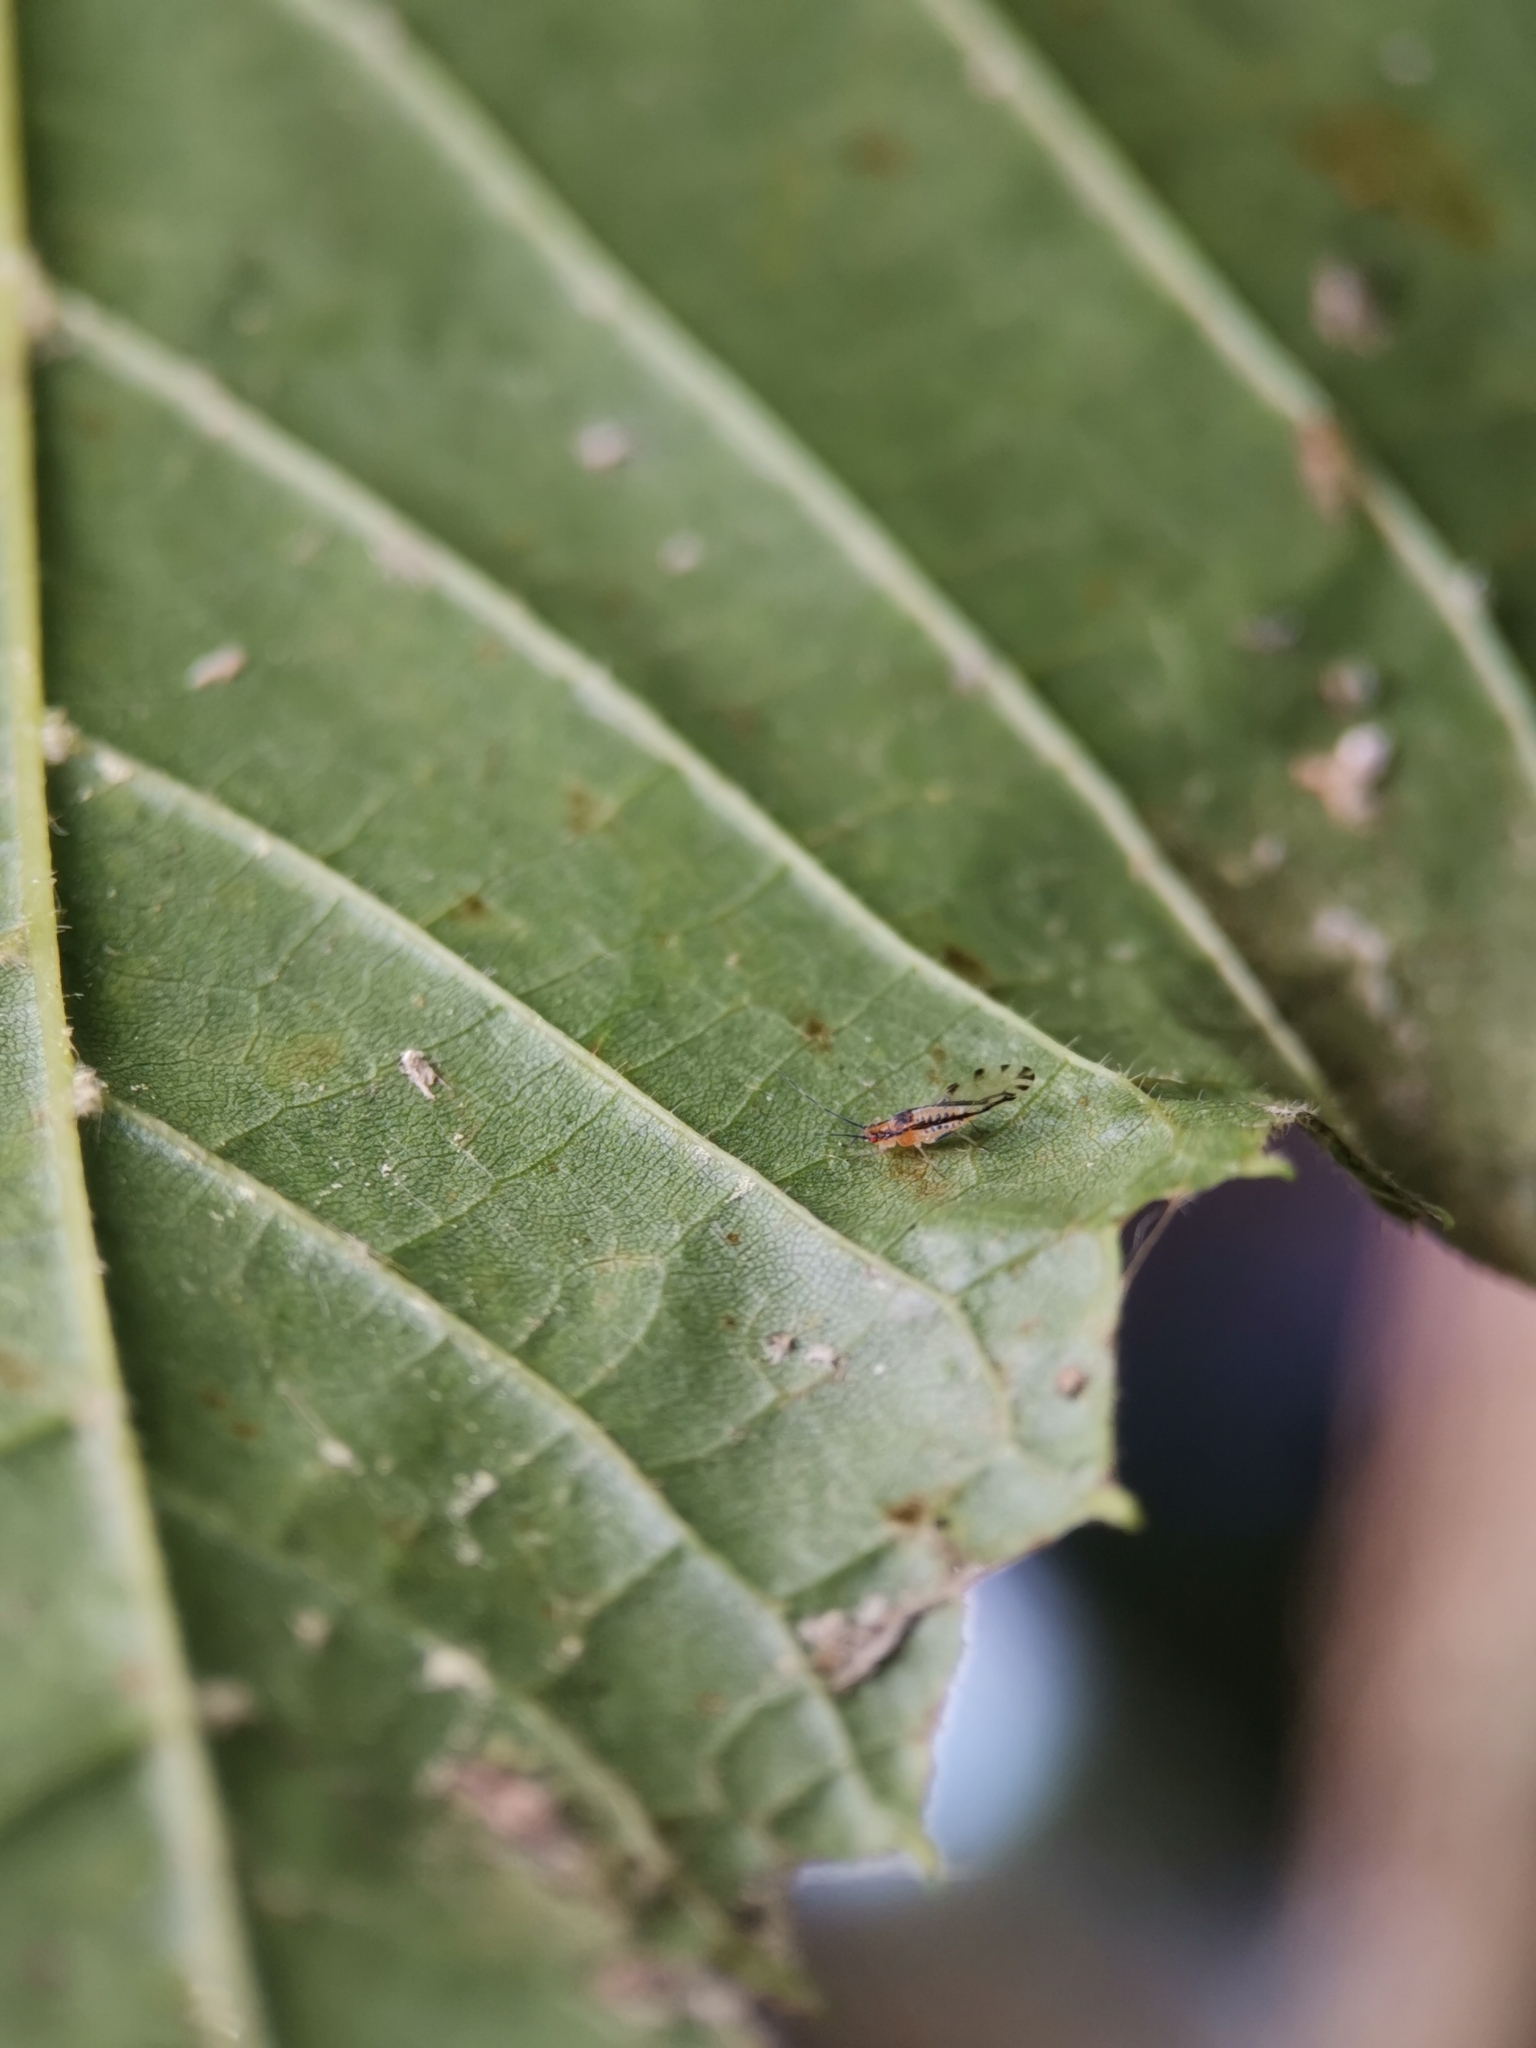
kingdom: Animalia
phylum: Arthropoda
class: Insecta
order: Hemiptera
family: Aphididae
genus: Eucallipterus
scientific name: Eucallipterus tiliae
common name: Aphid
